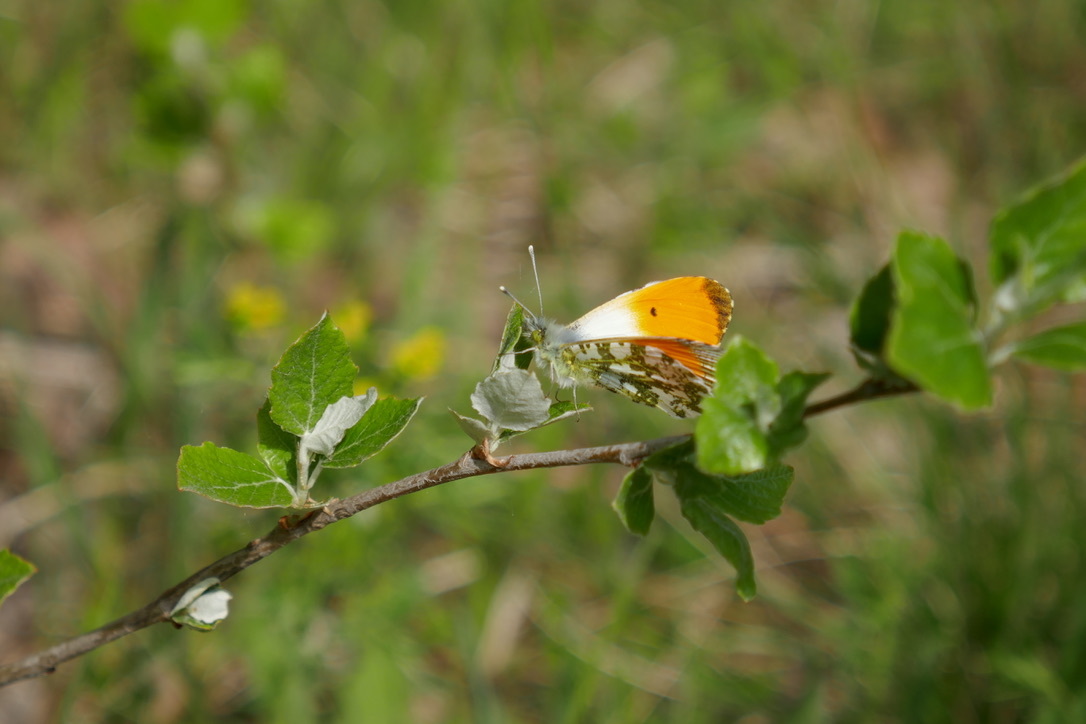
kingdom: Animalia
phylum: Arthropoda
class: Insecta
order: Lepidoptera
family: Pieridae
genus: Anthocharis
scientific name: Anthocharis cardamines
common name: Orange-tip
